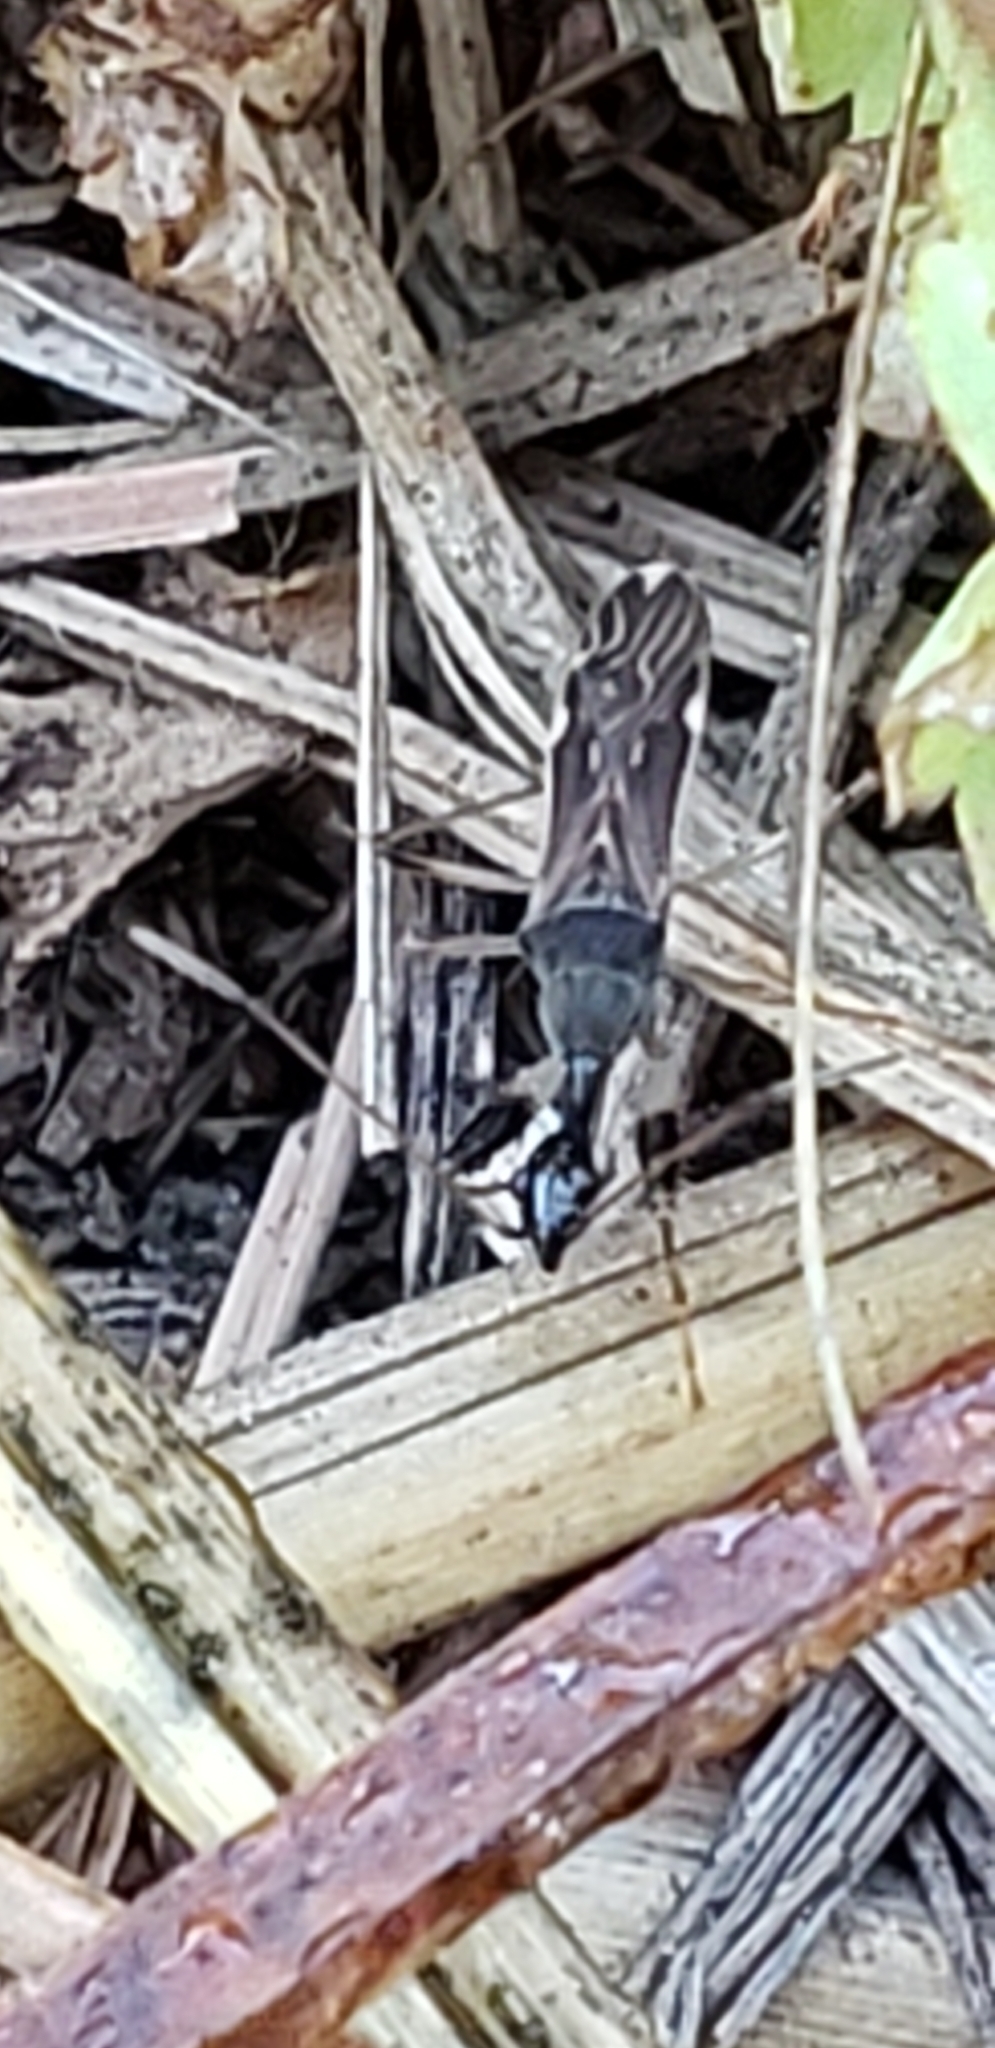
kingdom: Animalia
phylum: Arthropoda
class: Insecta
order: Hemiptera
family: Rhyparochromidae
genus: Myodocha
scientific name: Myodocha serripes
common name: Long-necked seed bug
